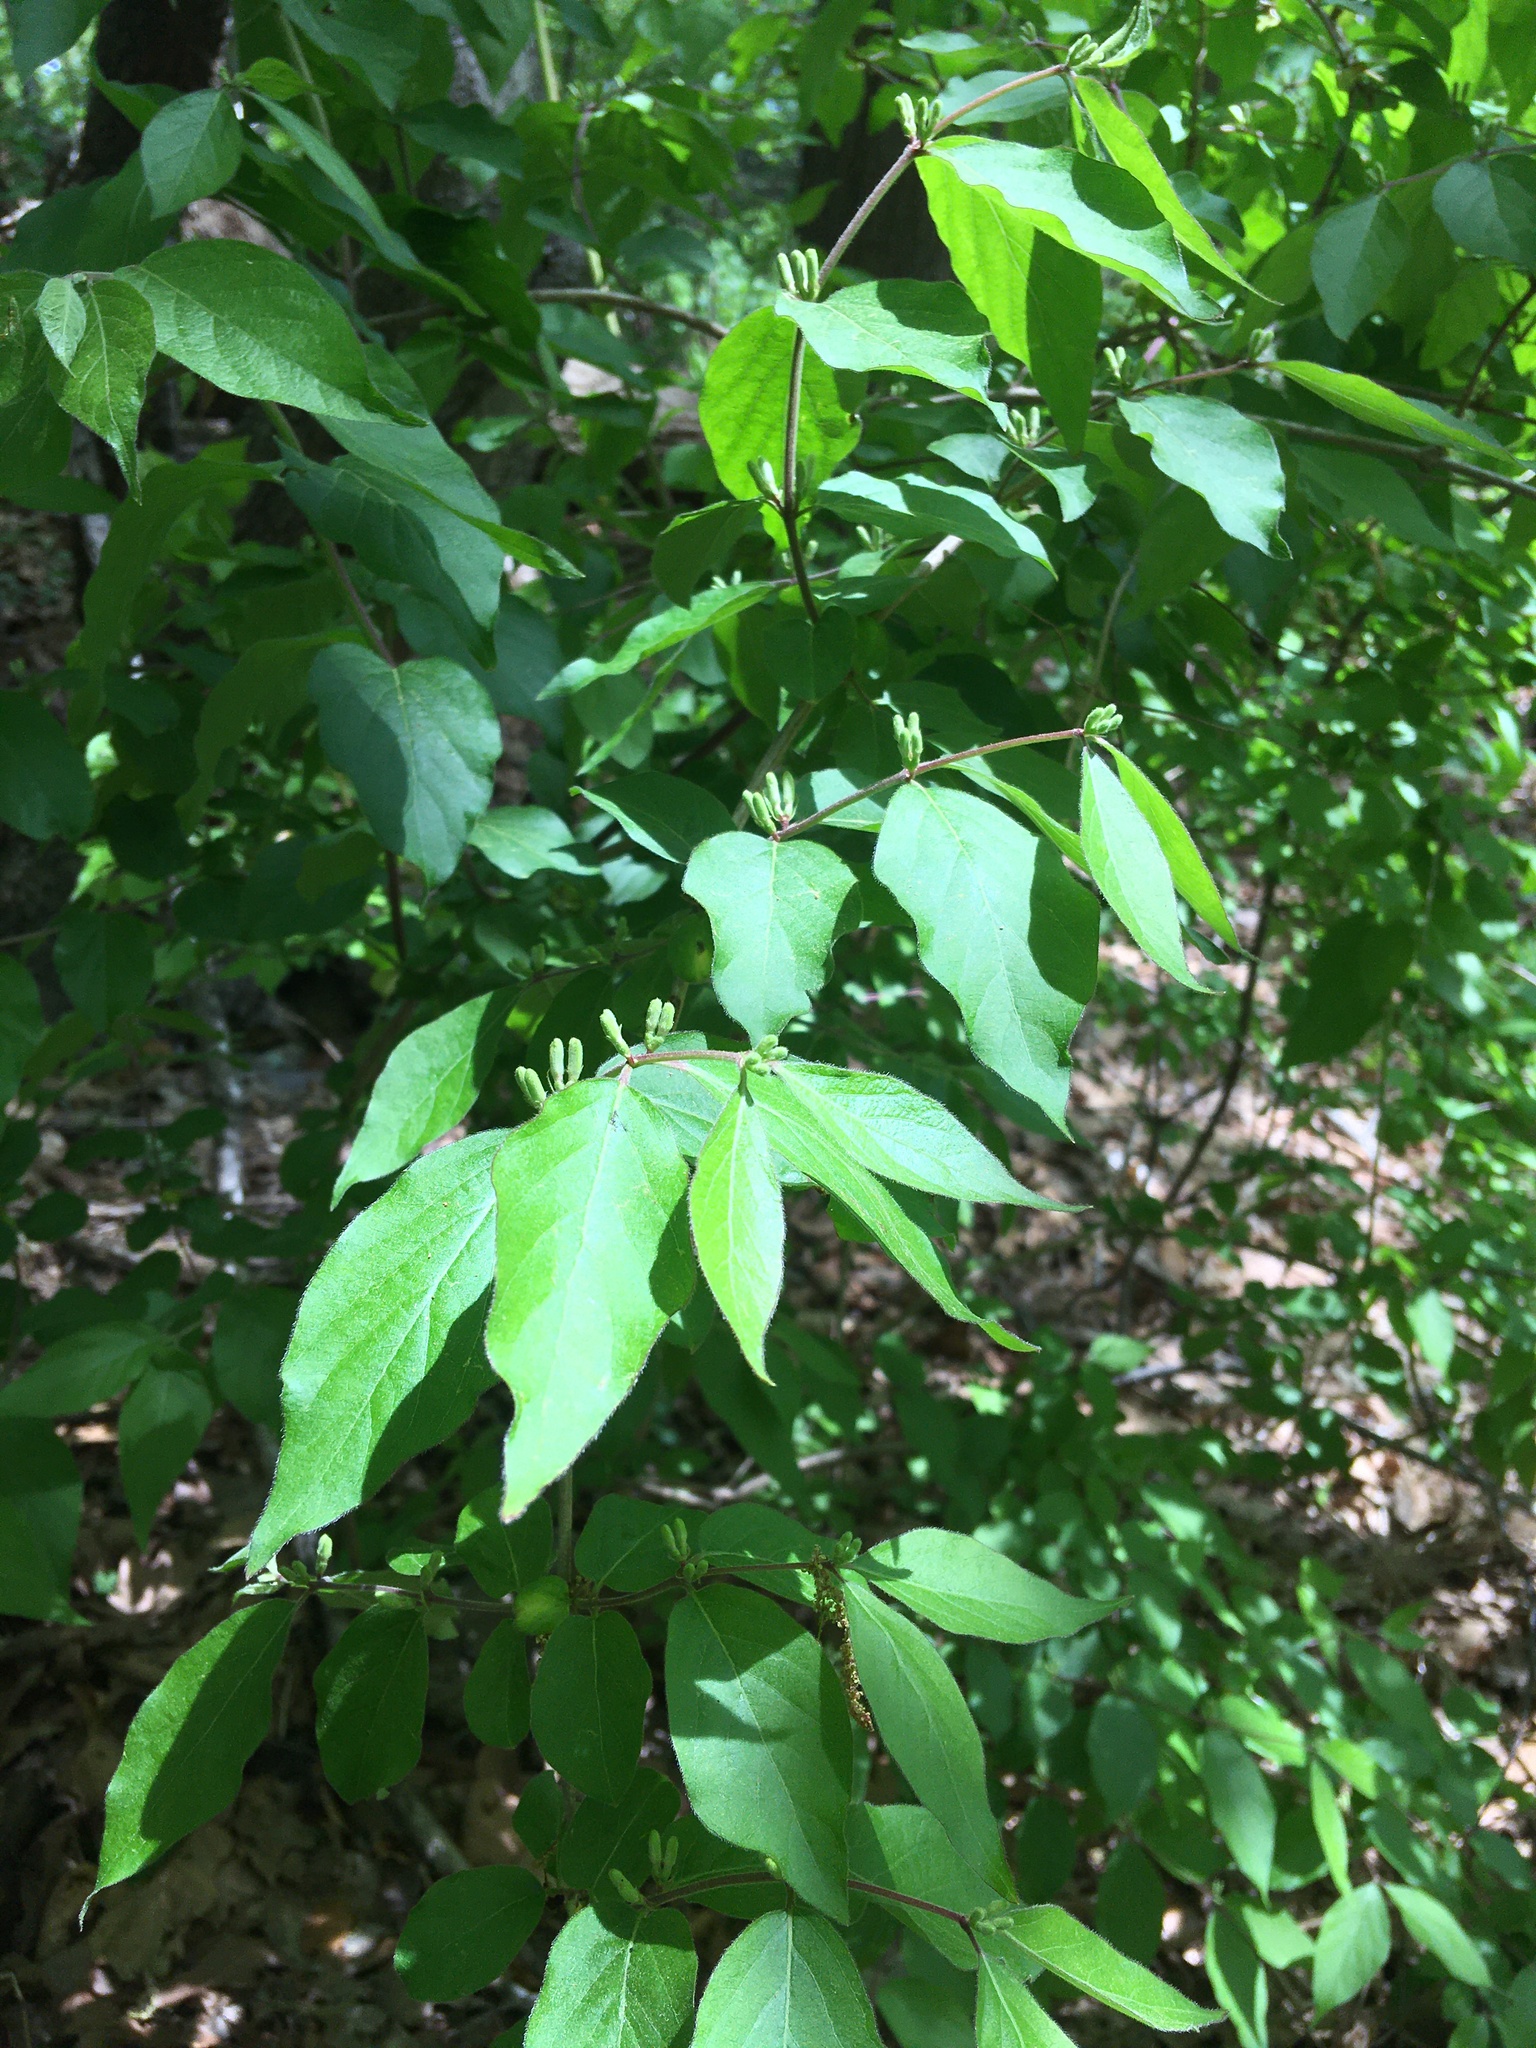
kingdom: Plantae
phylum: Tracheophyta
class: Magnoliopsida
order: Dipsacales
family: Caprifoliaceae
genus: Lonicera
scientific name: Lonicera maackii
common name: Amur honeysuckle
